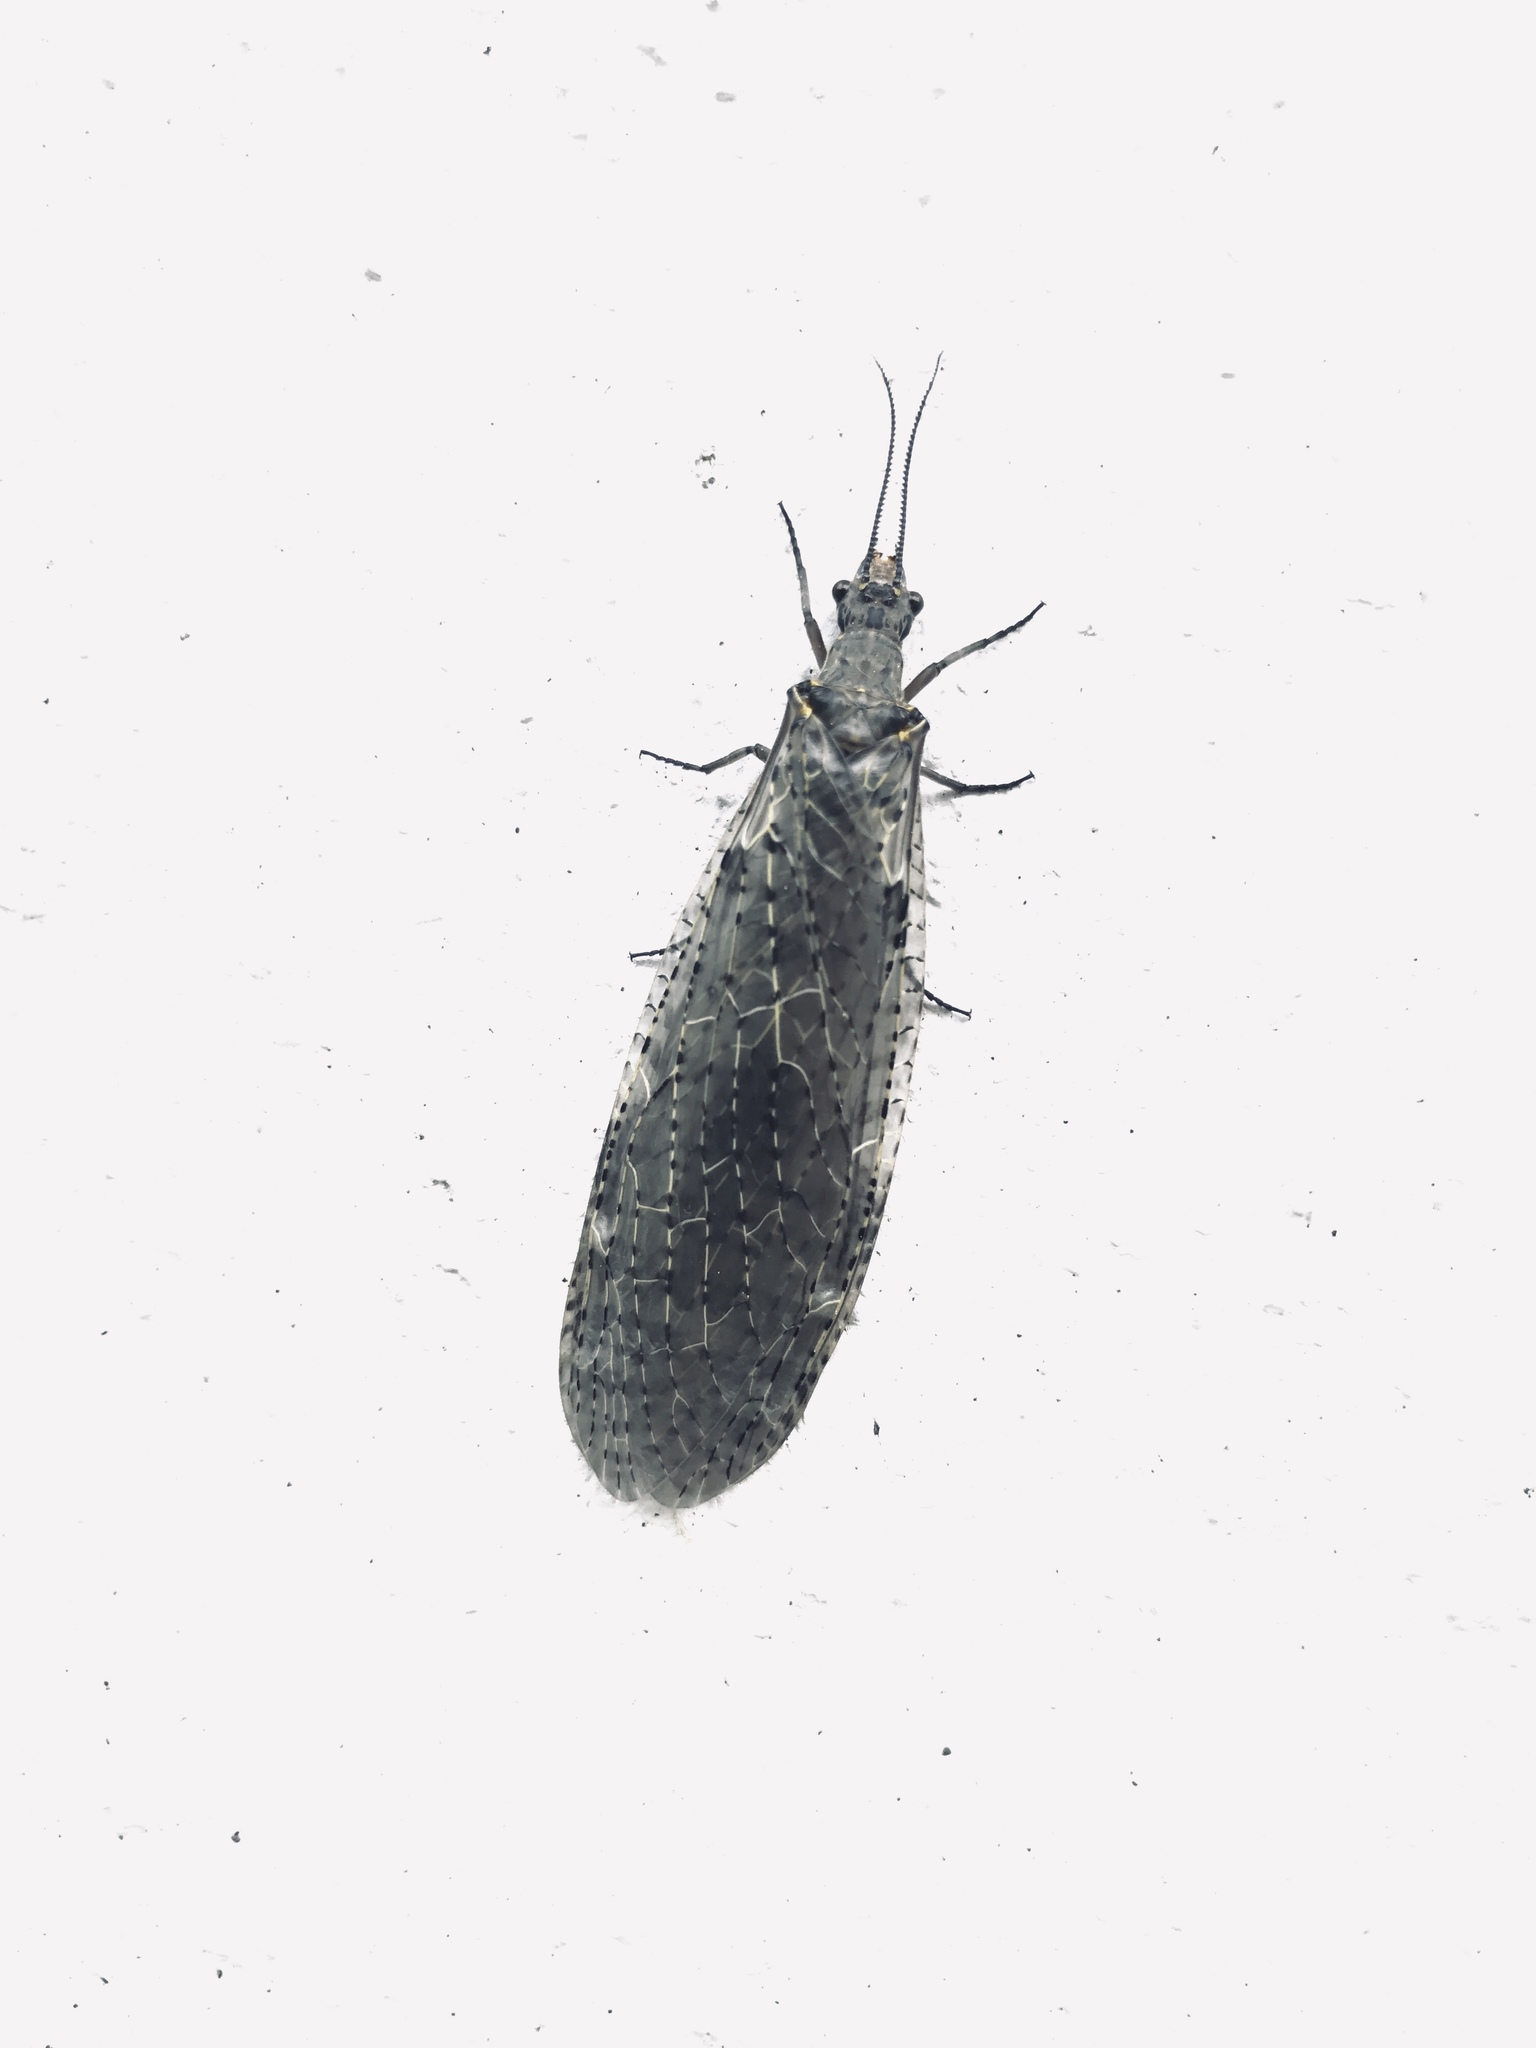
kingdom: Animalia
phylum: Arthropoda
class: Insecta
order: Megaloptera
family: Corydalidae
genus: Chauliodes
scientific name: Chauliodes rastricornis
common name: Spring fishfly
